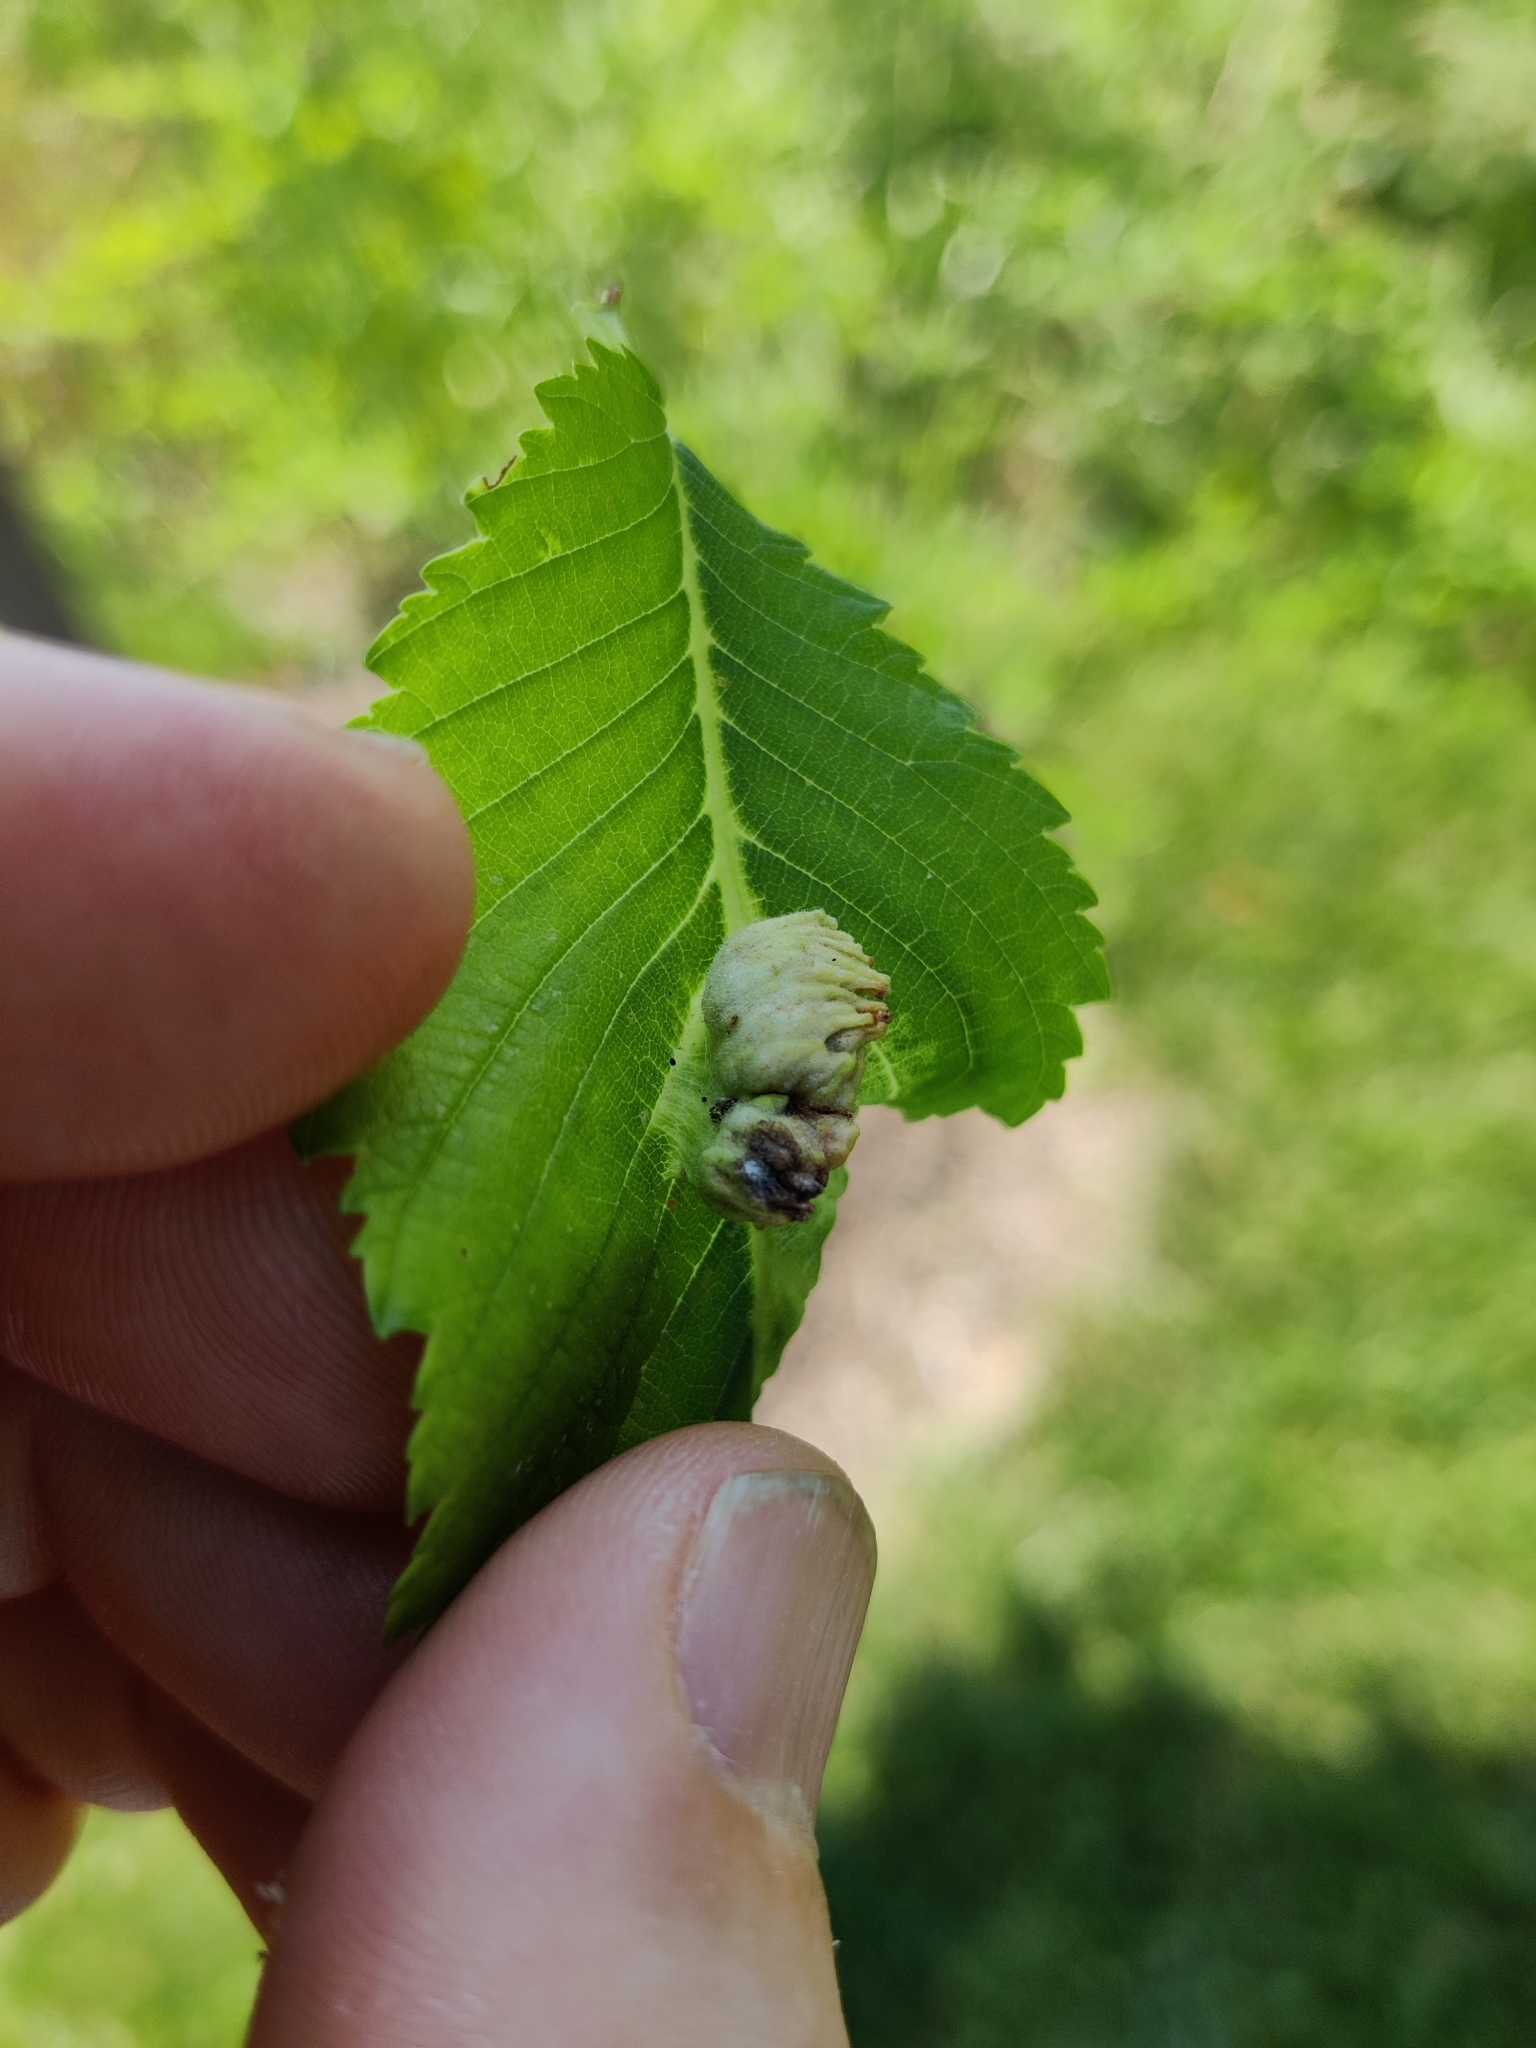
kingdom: Animalia
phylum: Arthropoda
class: Insecta
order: Hemiptera
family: Aphididae
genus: Colopha
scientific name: Colopha ulmicola
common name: Elm cockscombgall aphid
